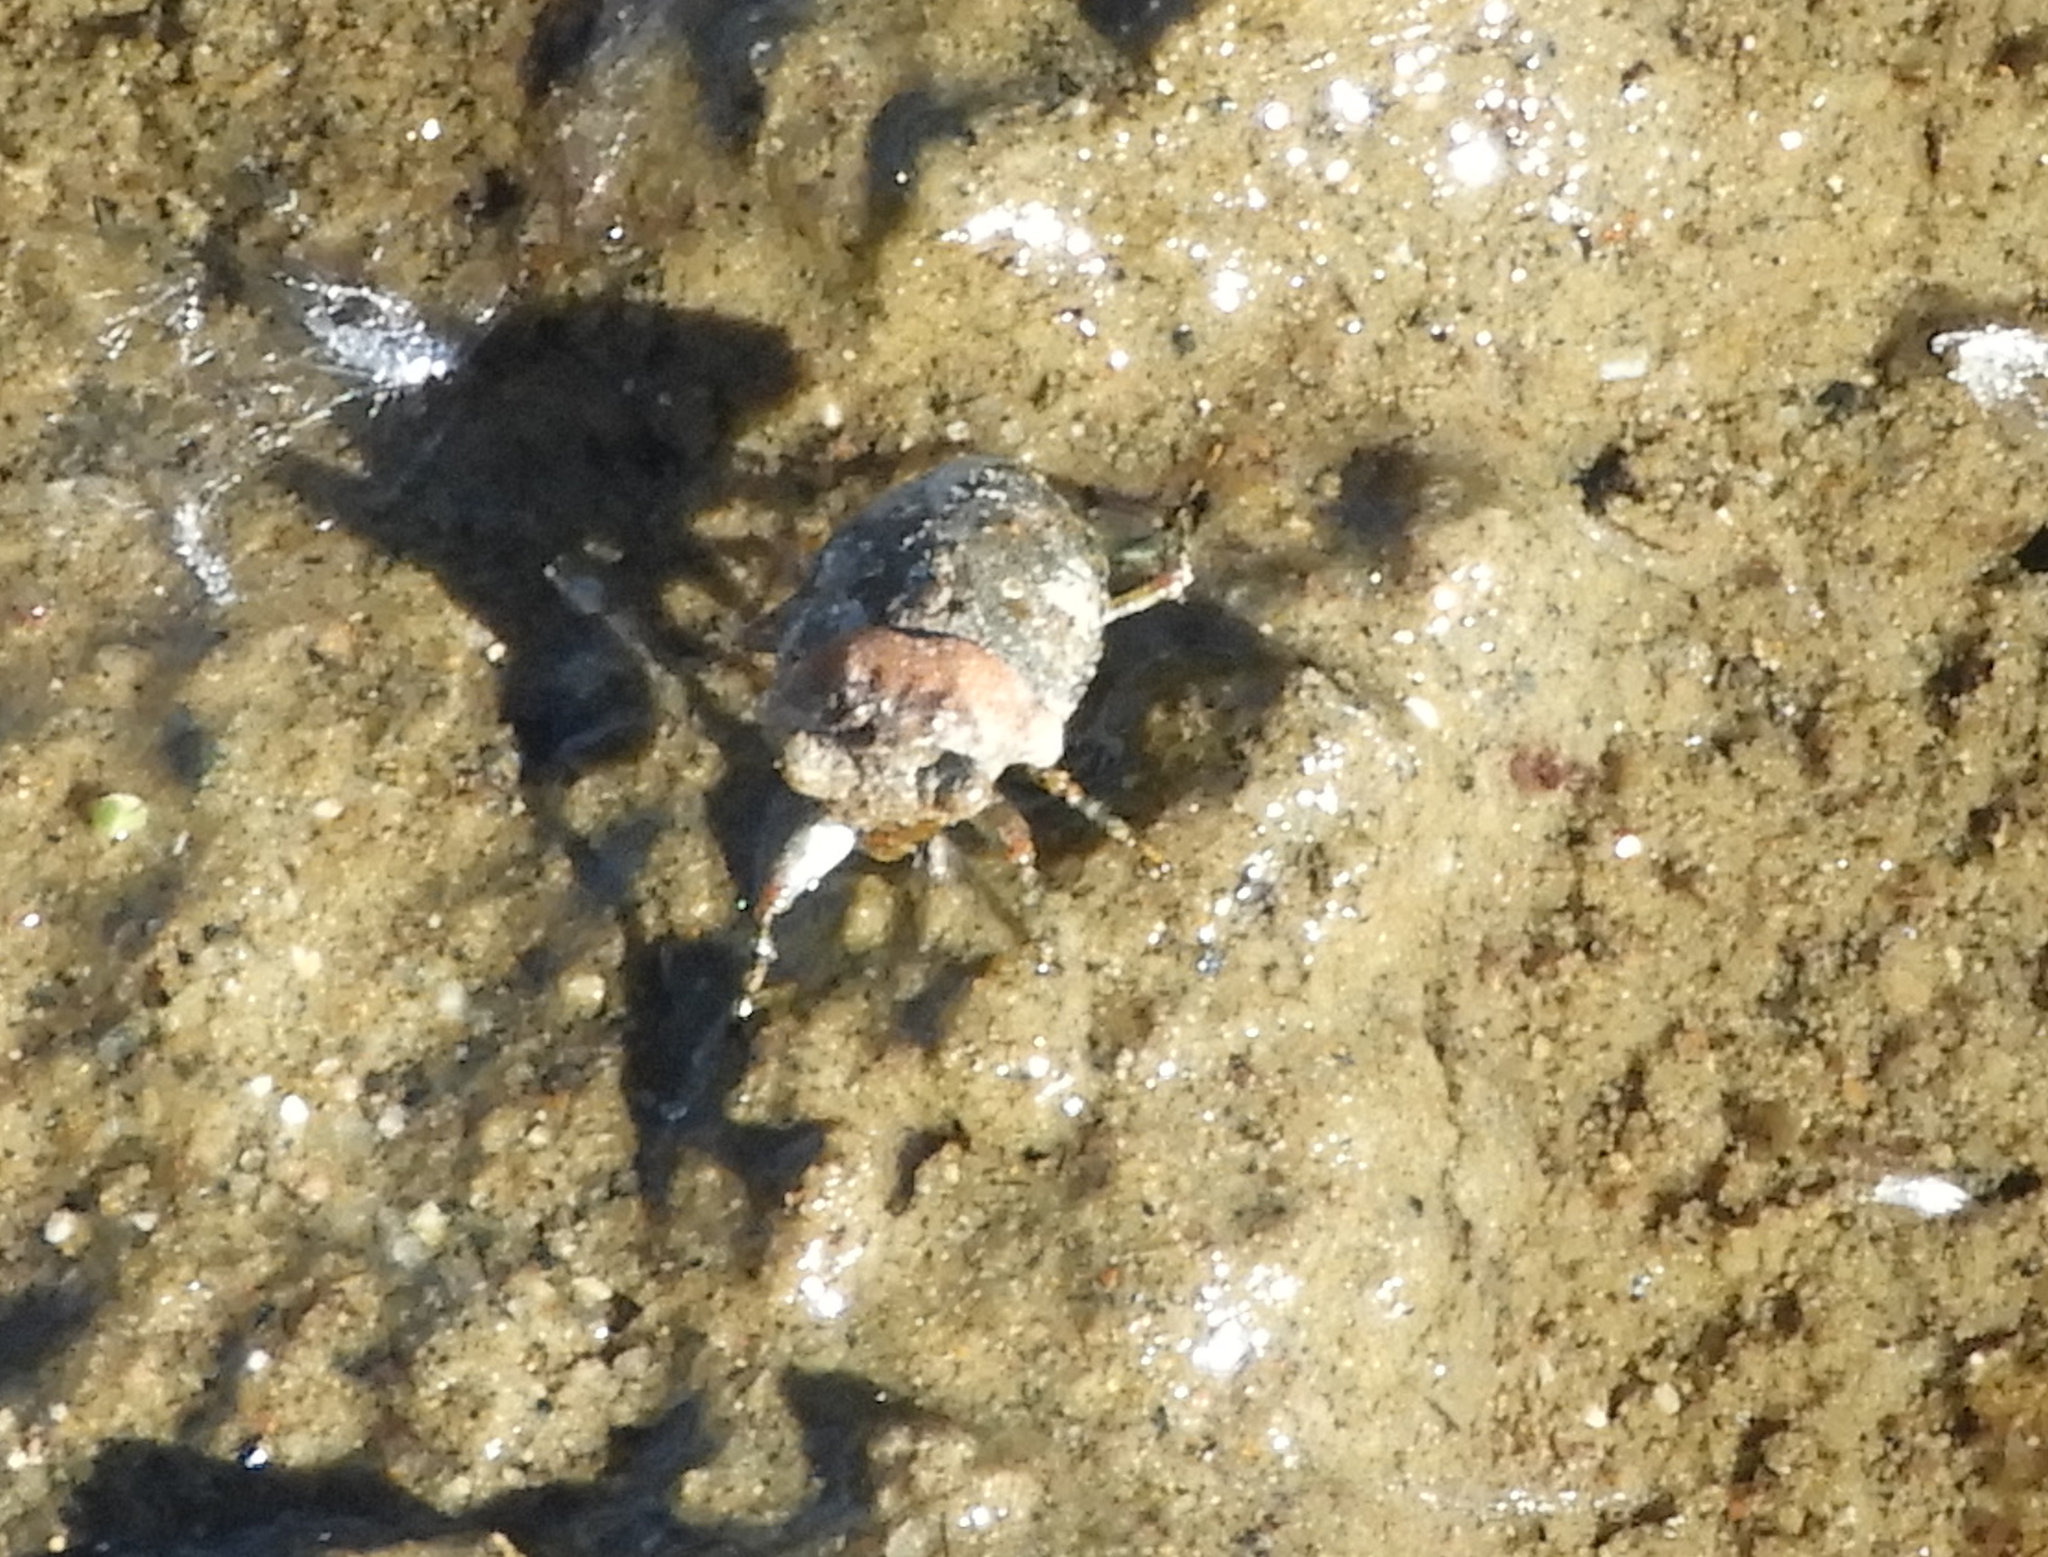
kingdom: Animalia
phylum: Arthropoda
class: Insecta
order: Hemiptera
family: Gelastocoridae
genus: Gelastocoris
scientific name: Gelastocoris oculatus
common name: Toad bug
